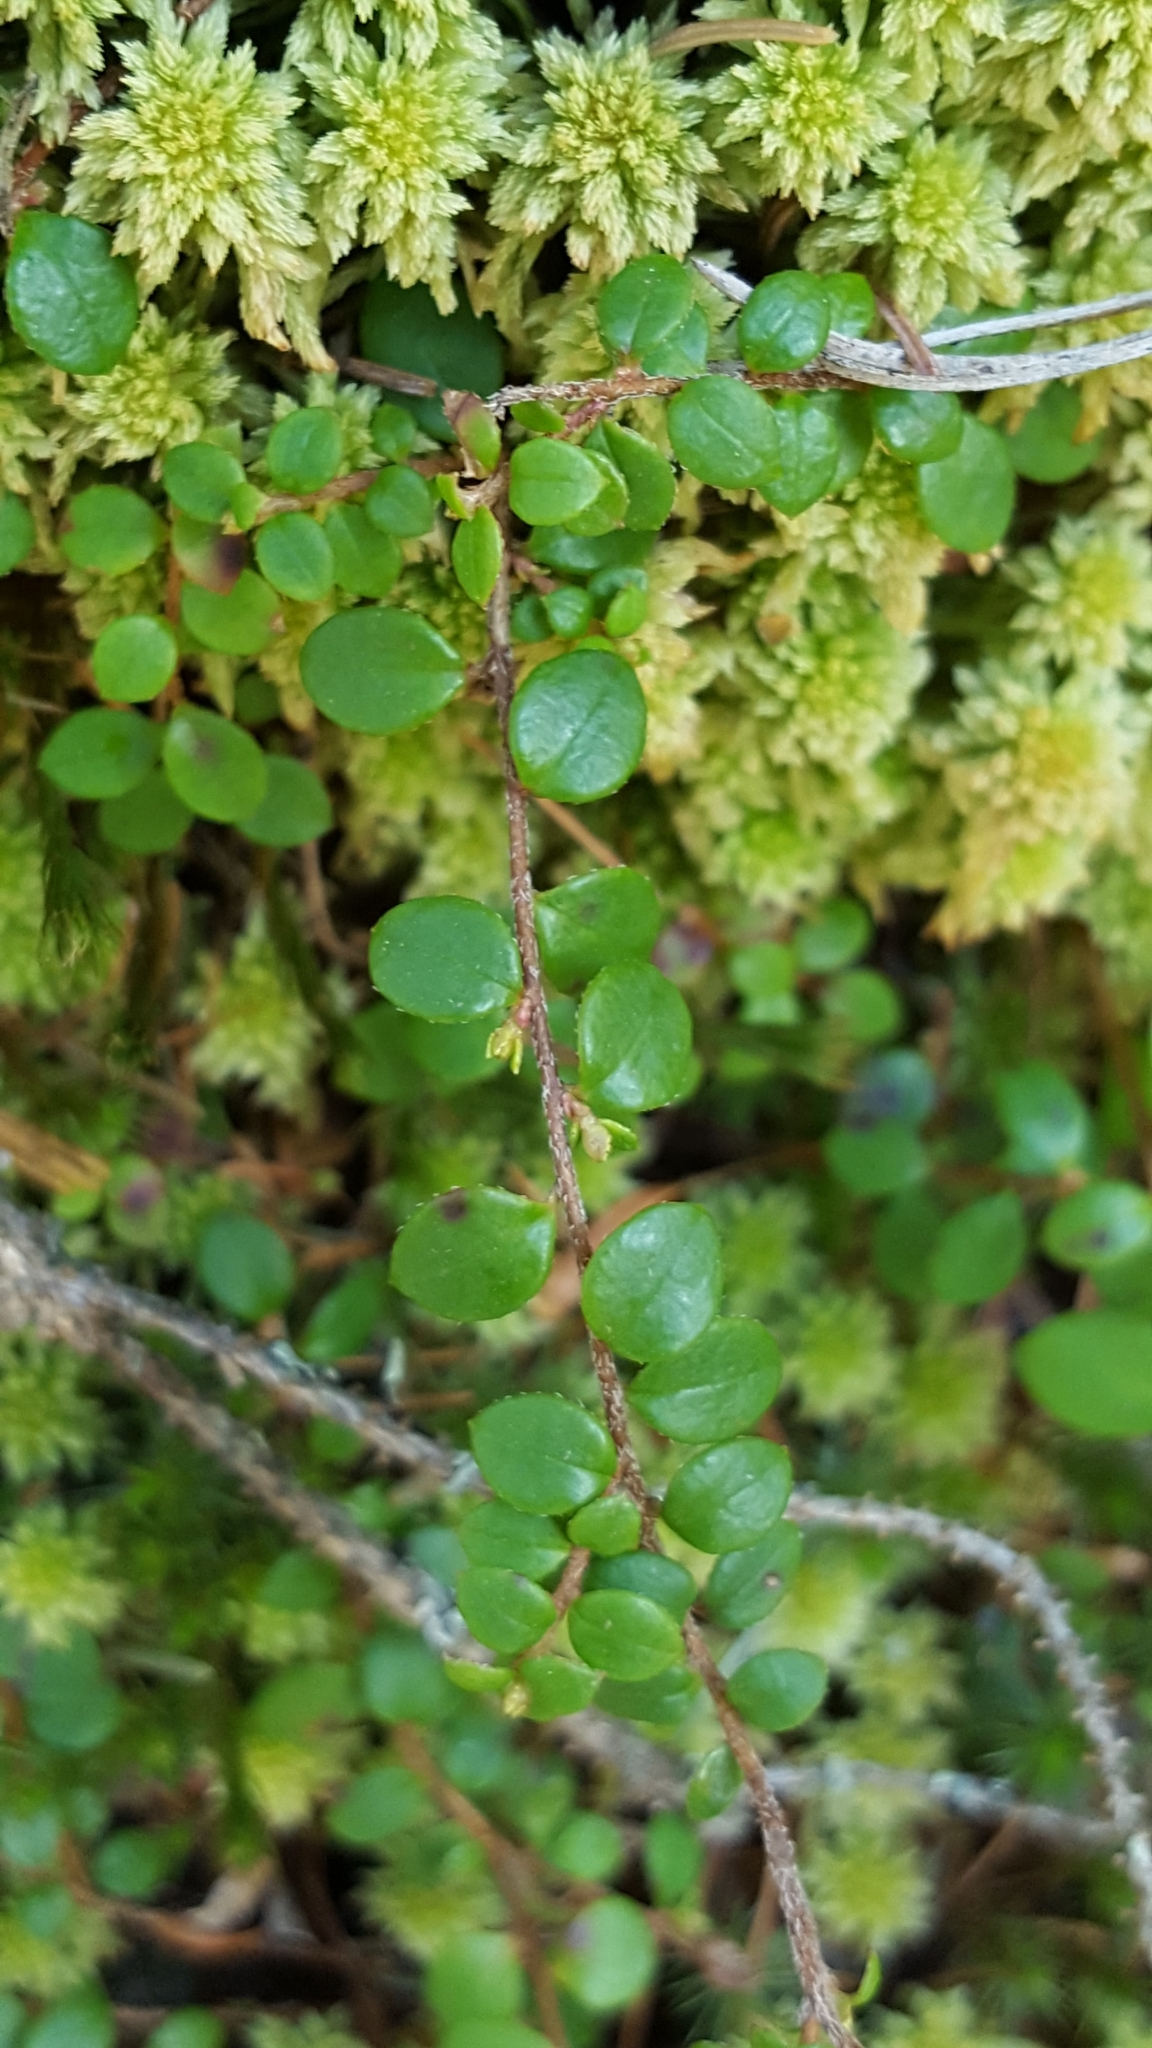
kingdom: Plantae
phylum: Tracheophyta
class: Magnoliopsida
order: Ericales
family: Ericaceae
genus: Gaultheria
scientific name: Gaultheria hispidula
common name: Cancer wintergreen
